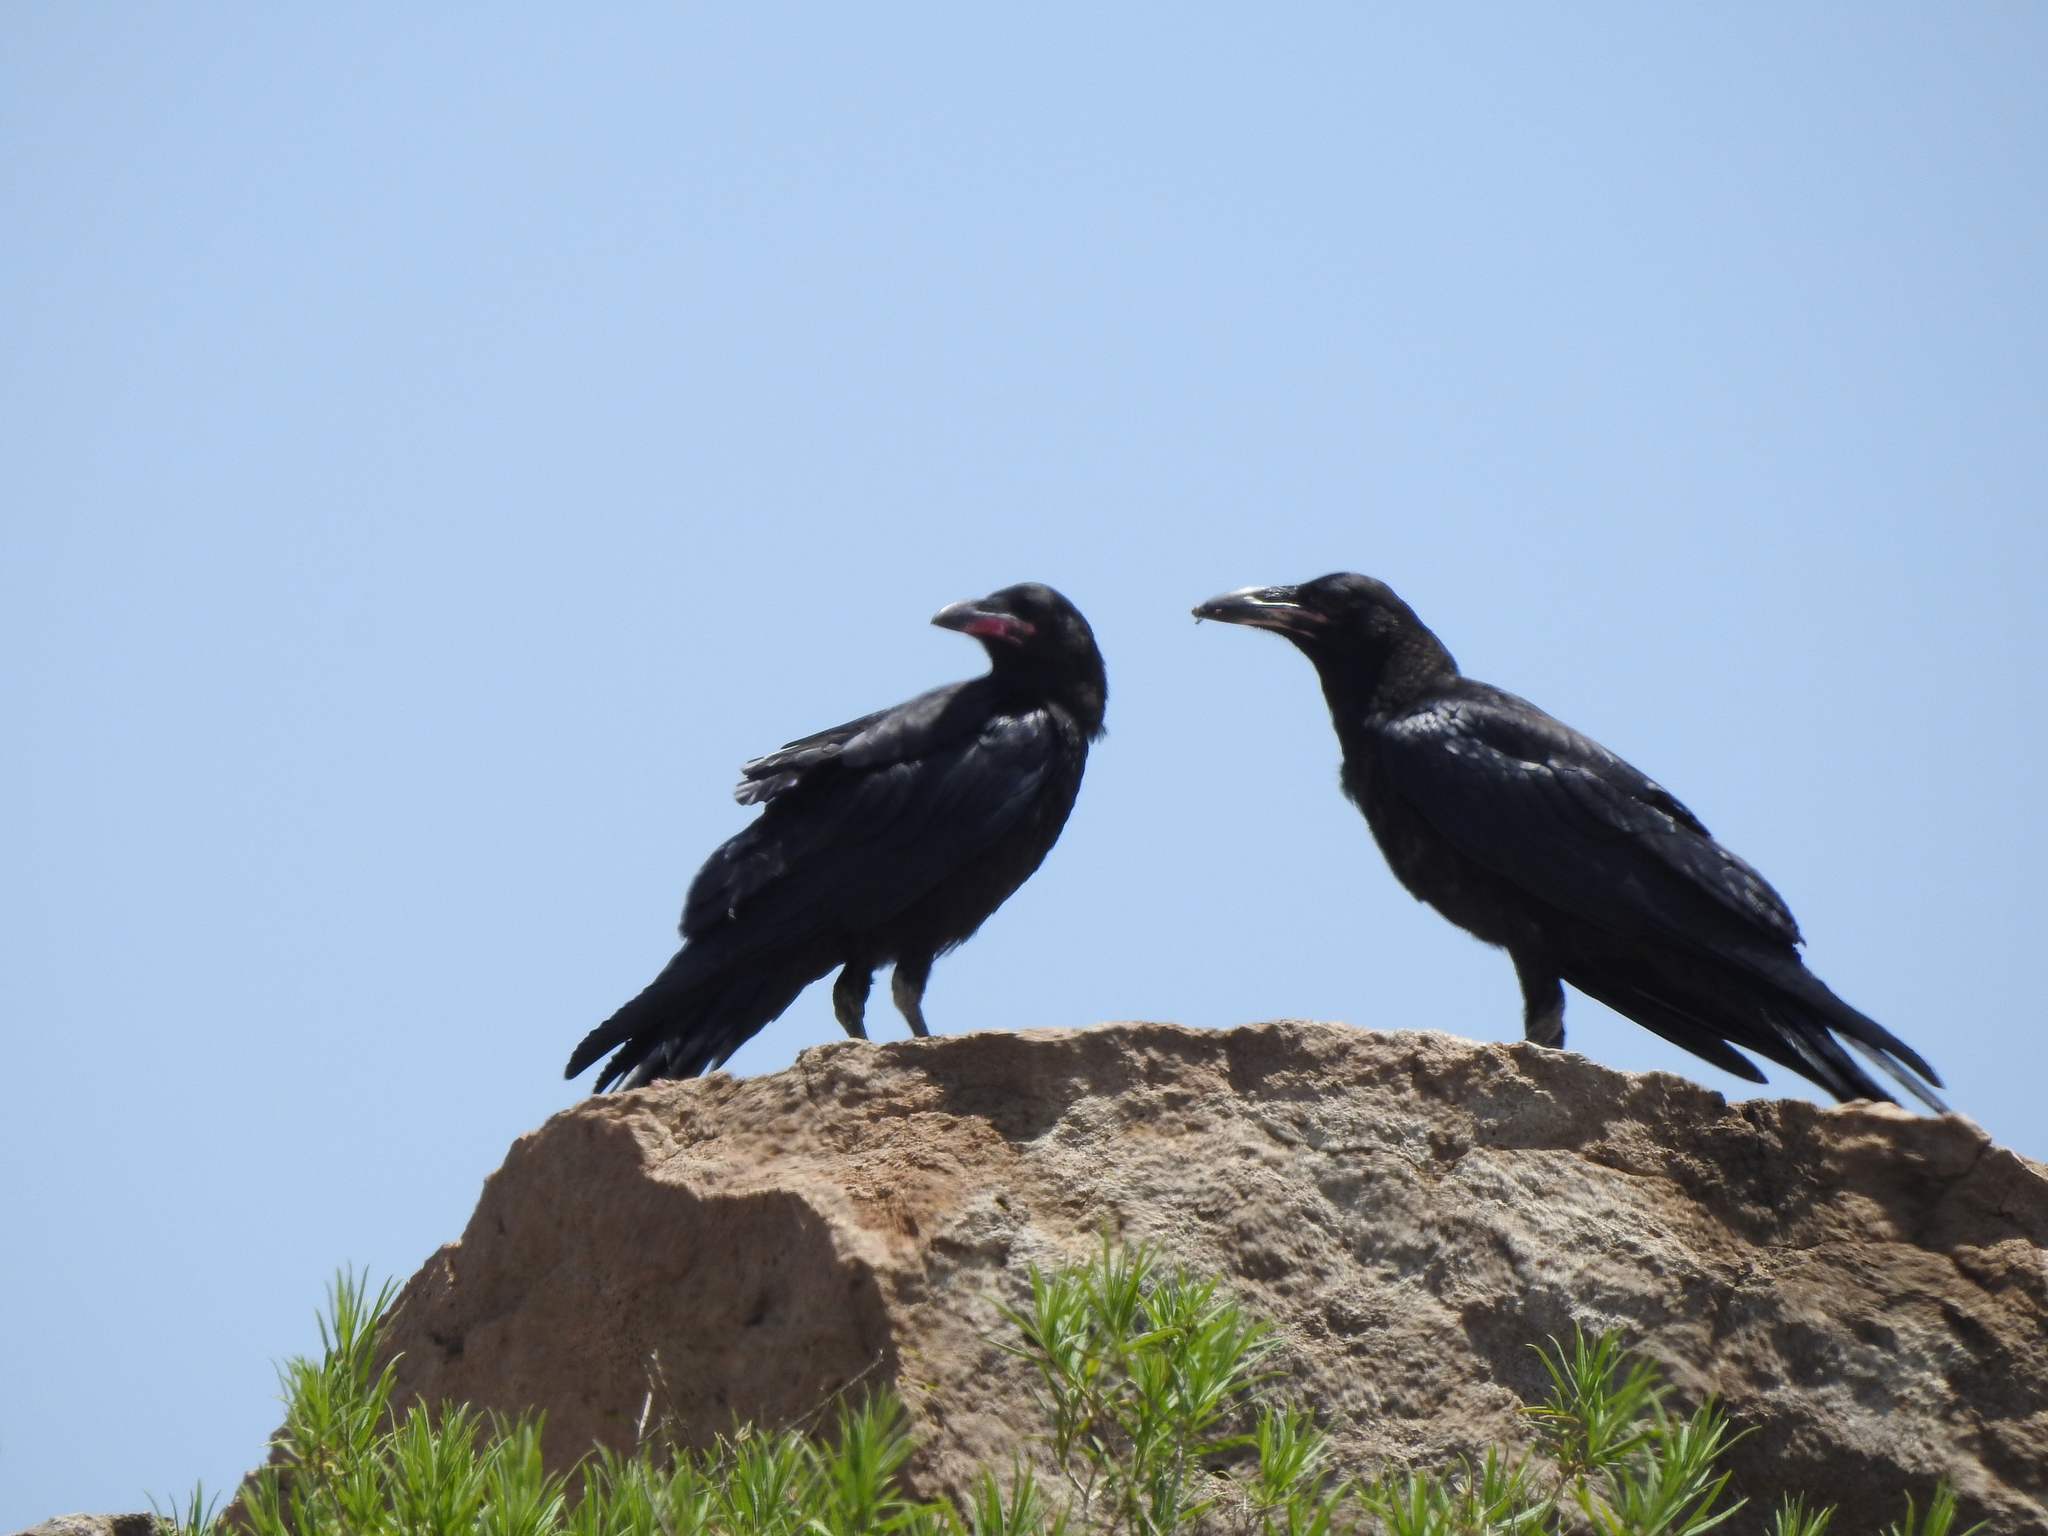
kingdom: Animalia
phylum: Chordata
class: Aves
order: Passeriformes
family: Corvidae
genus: Corvus
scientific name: Corvus corax
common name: Common raven
